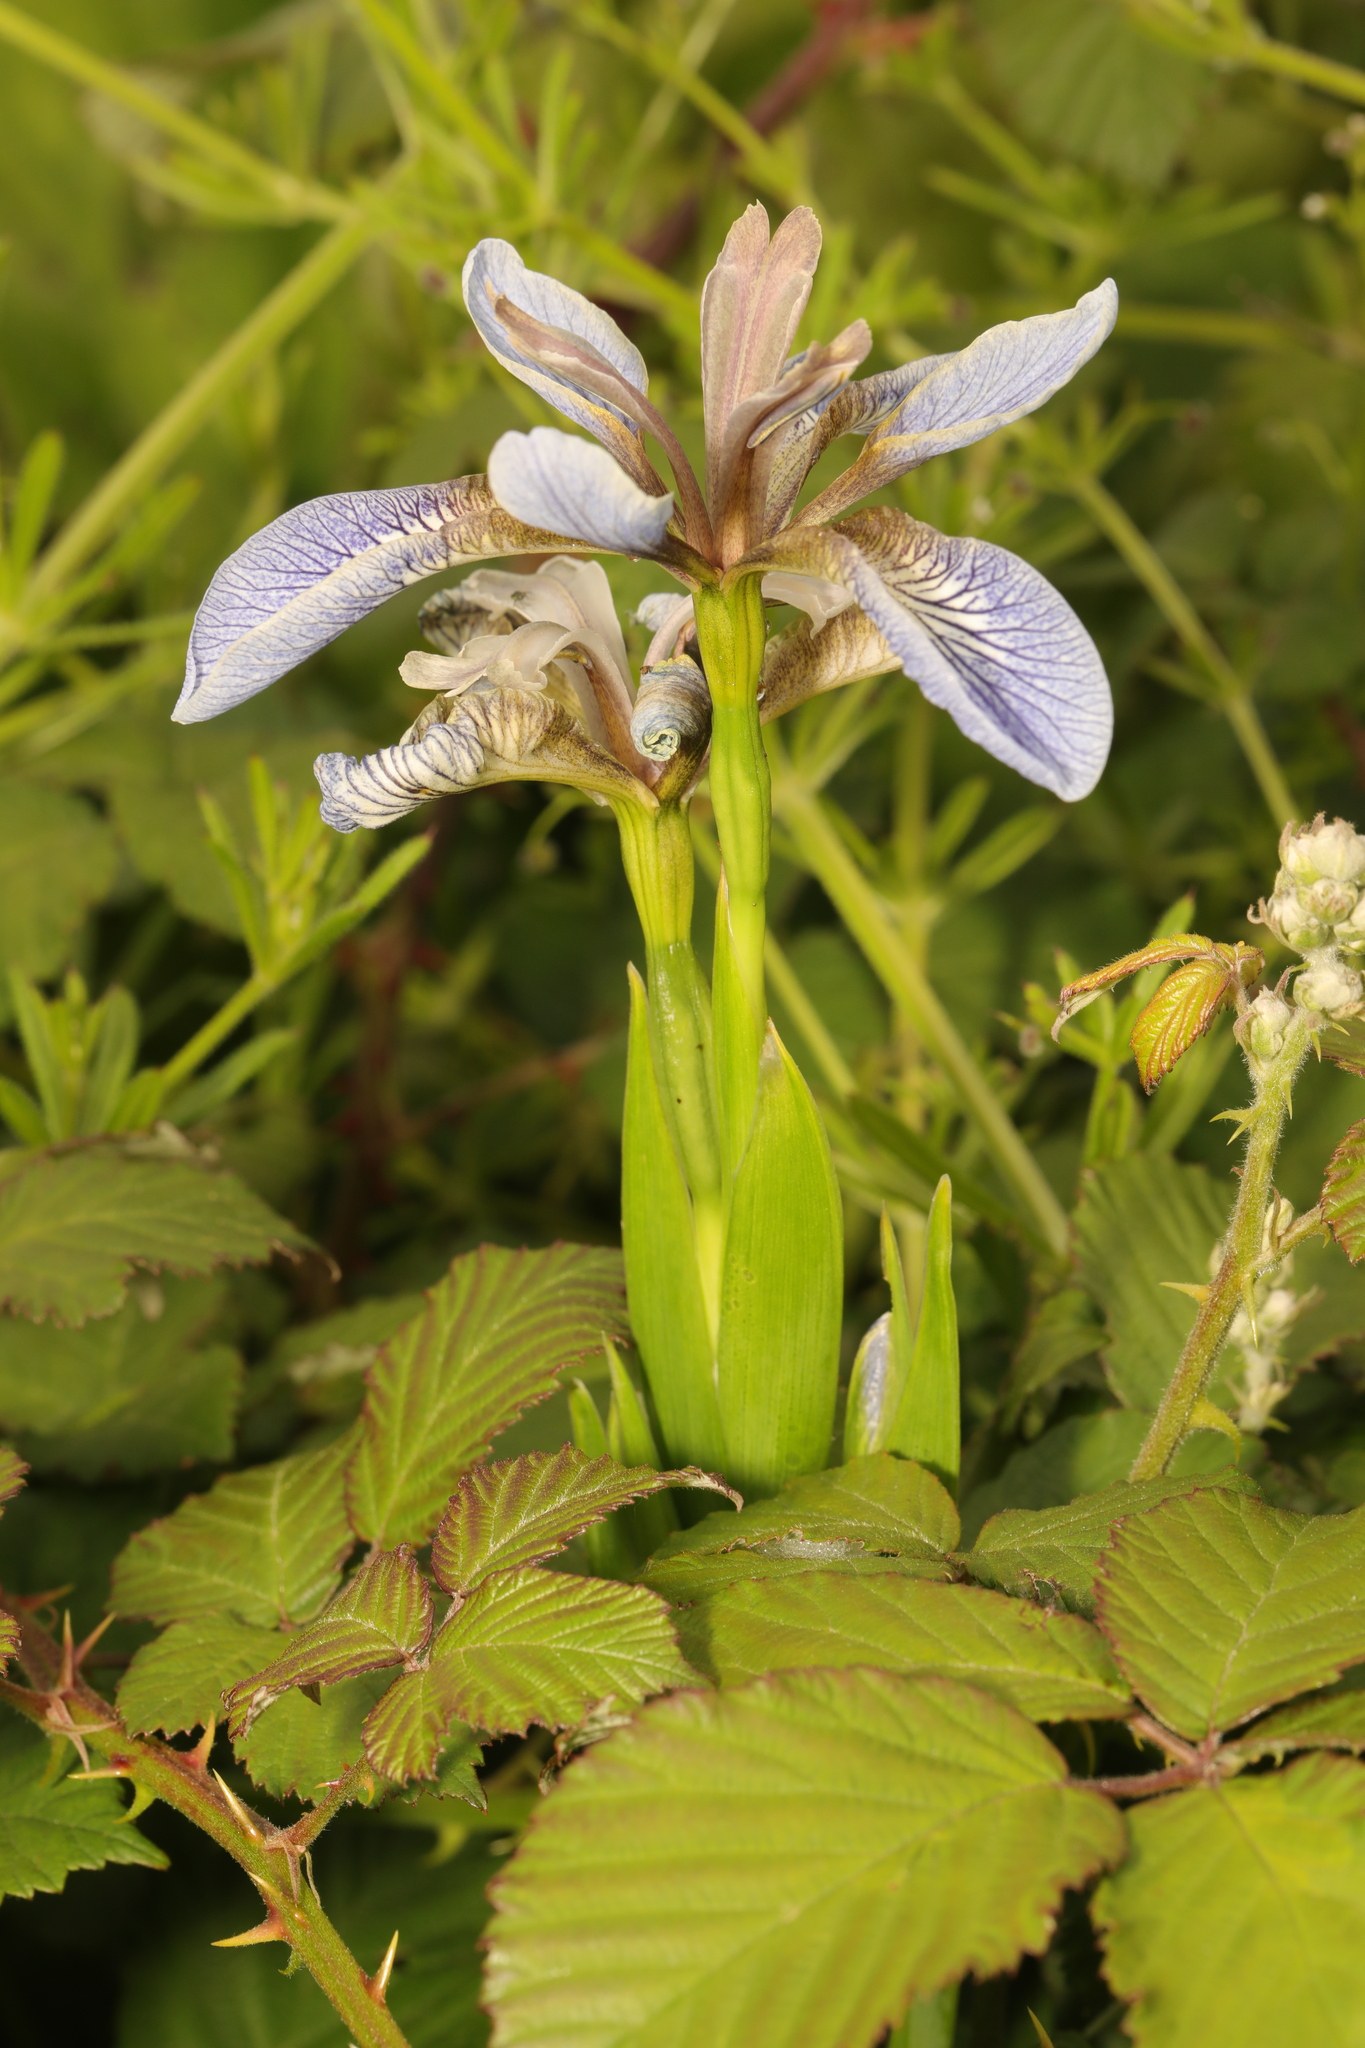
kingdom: Plantae
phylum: Tracheophyta
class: Liliopsida
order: Asparagales
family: Iridaceae
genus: Iris
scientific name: Iris foetidissima
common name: Stinking iris
